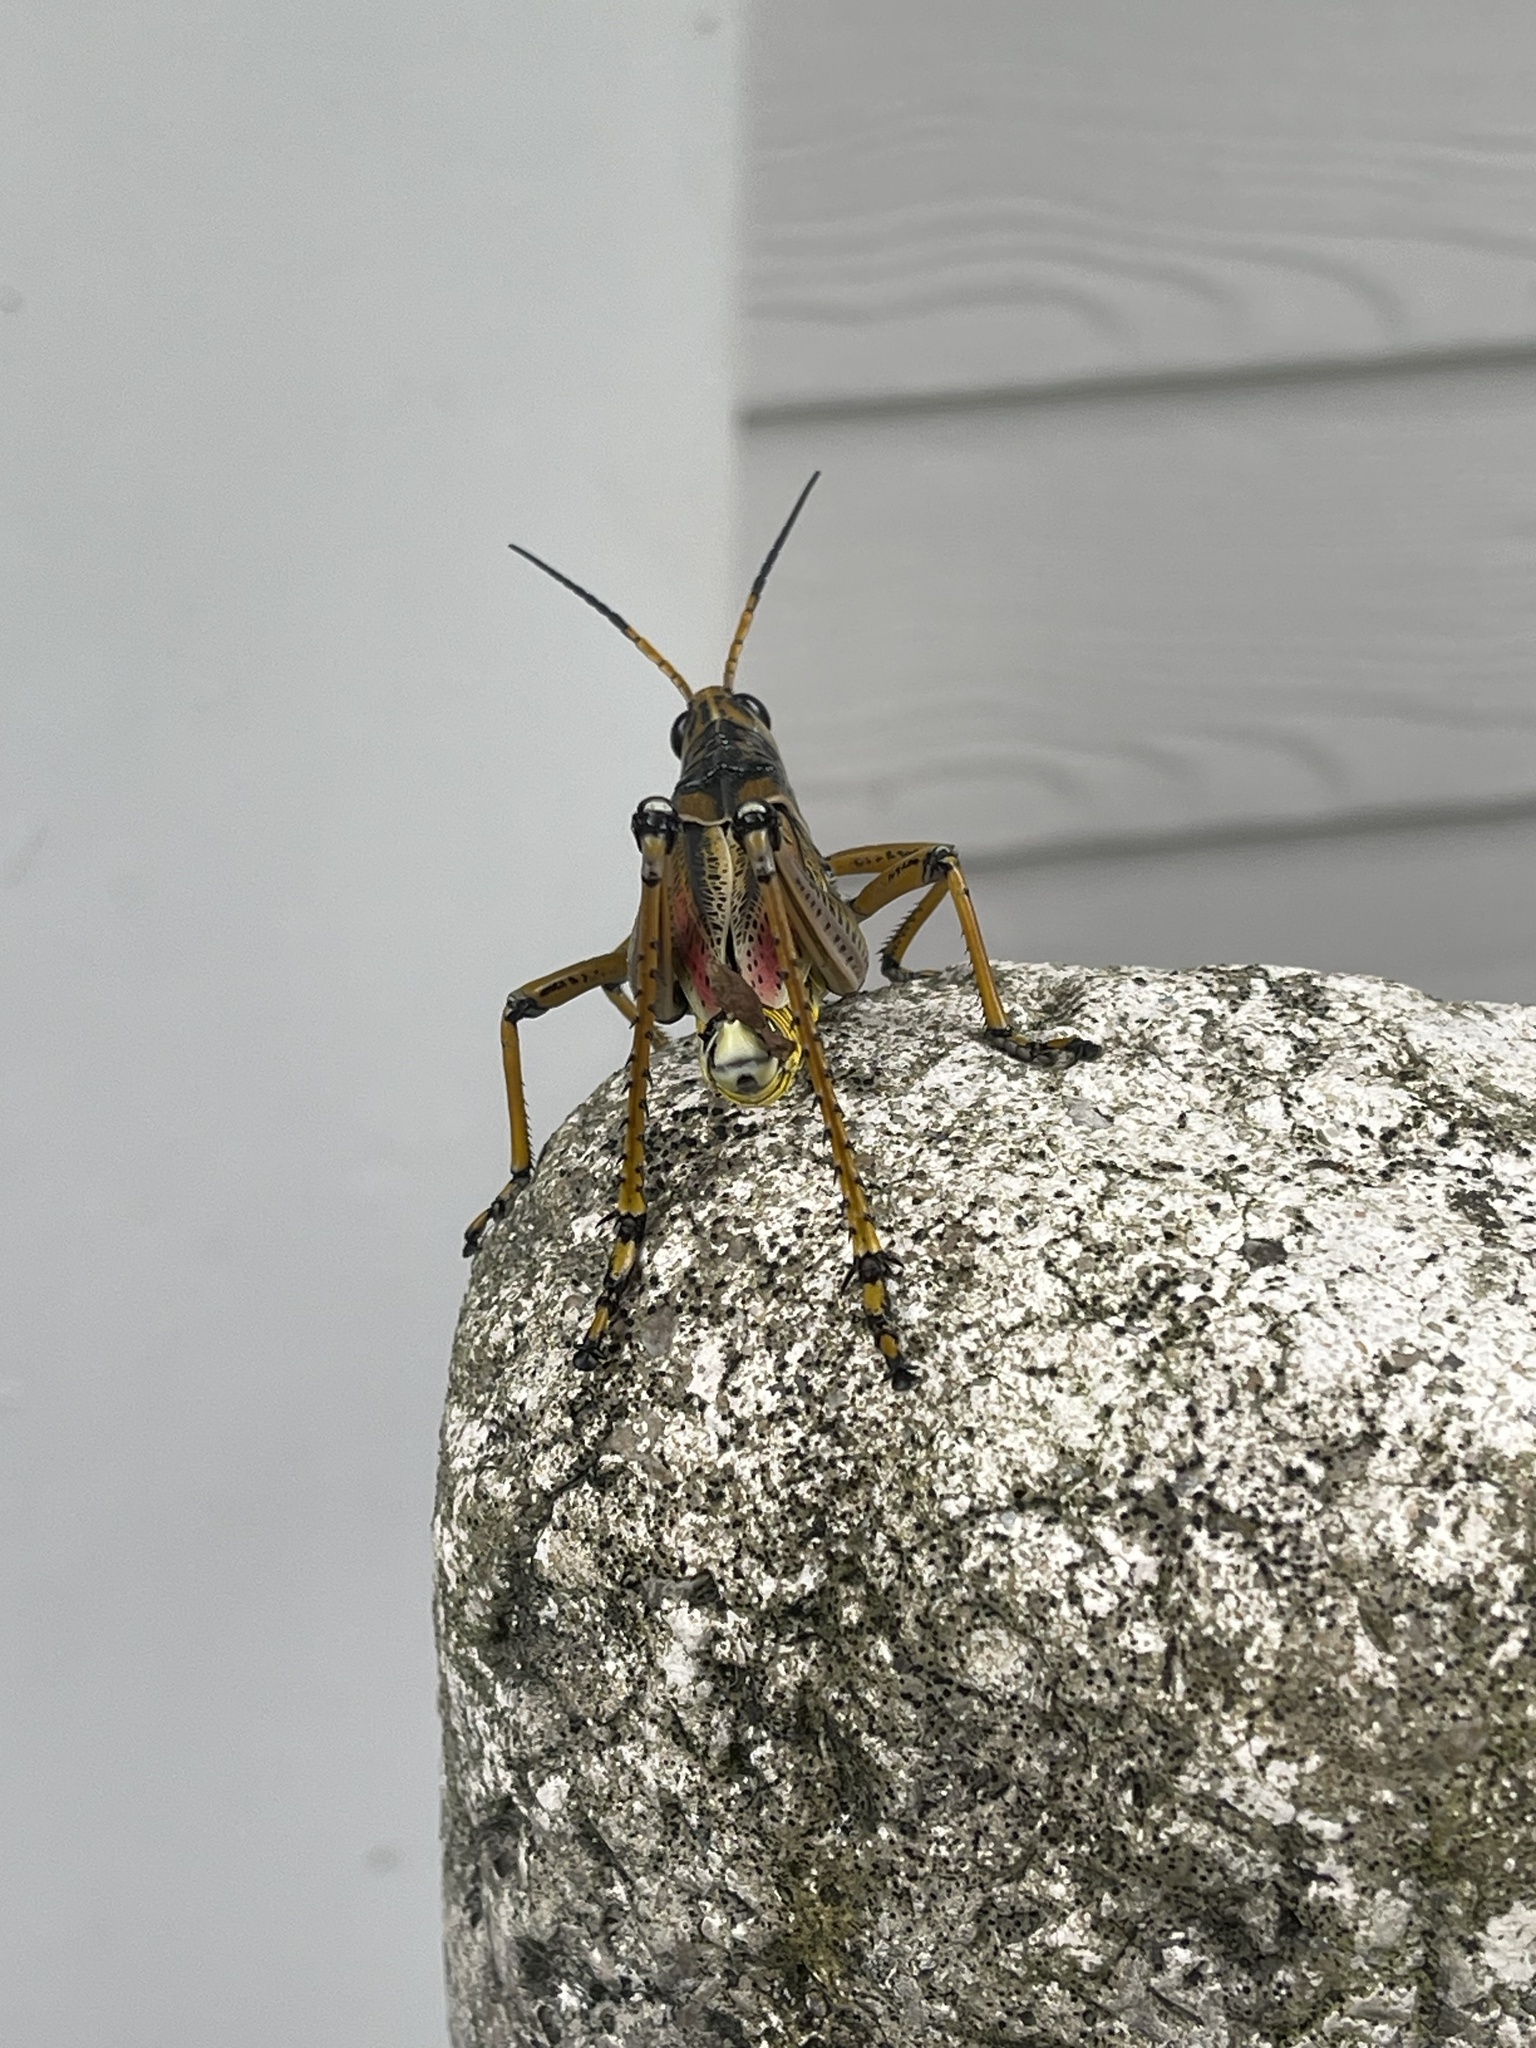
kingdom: Animalia
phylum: Arthropoda
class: Insecta
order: Orthoptera
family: Romaleidae
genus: Romalea
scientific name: Romalea microptera
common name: Eastern lubber grasshopper
